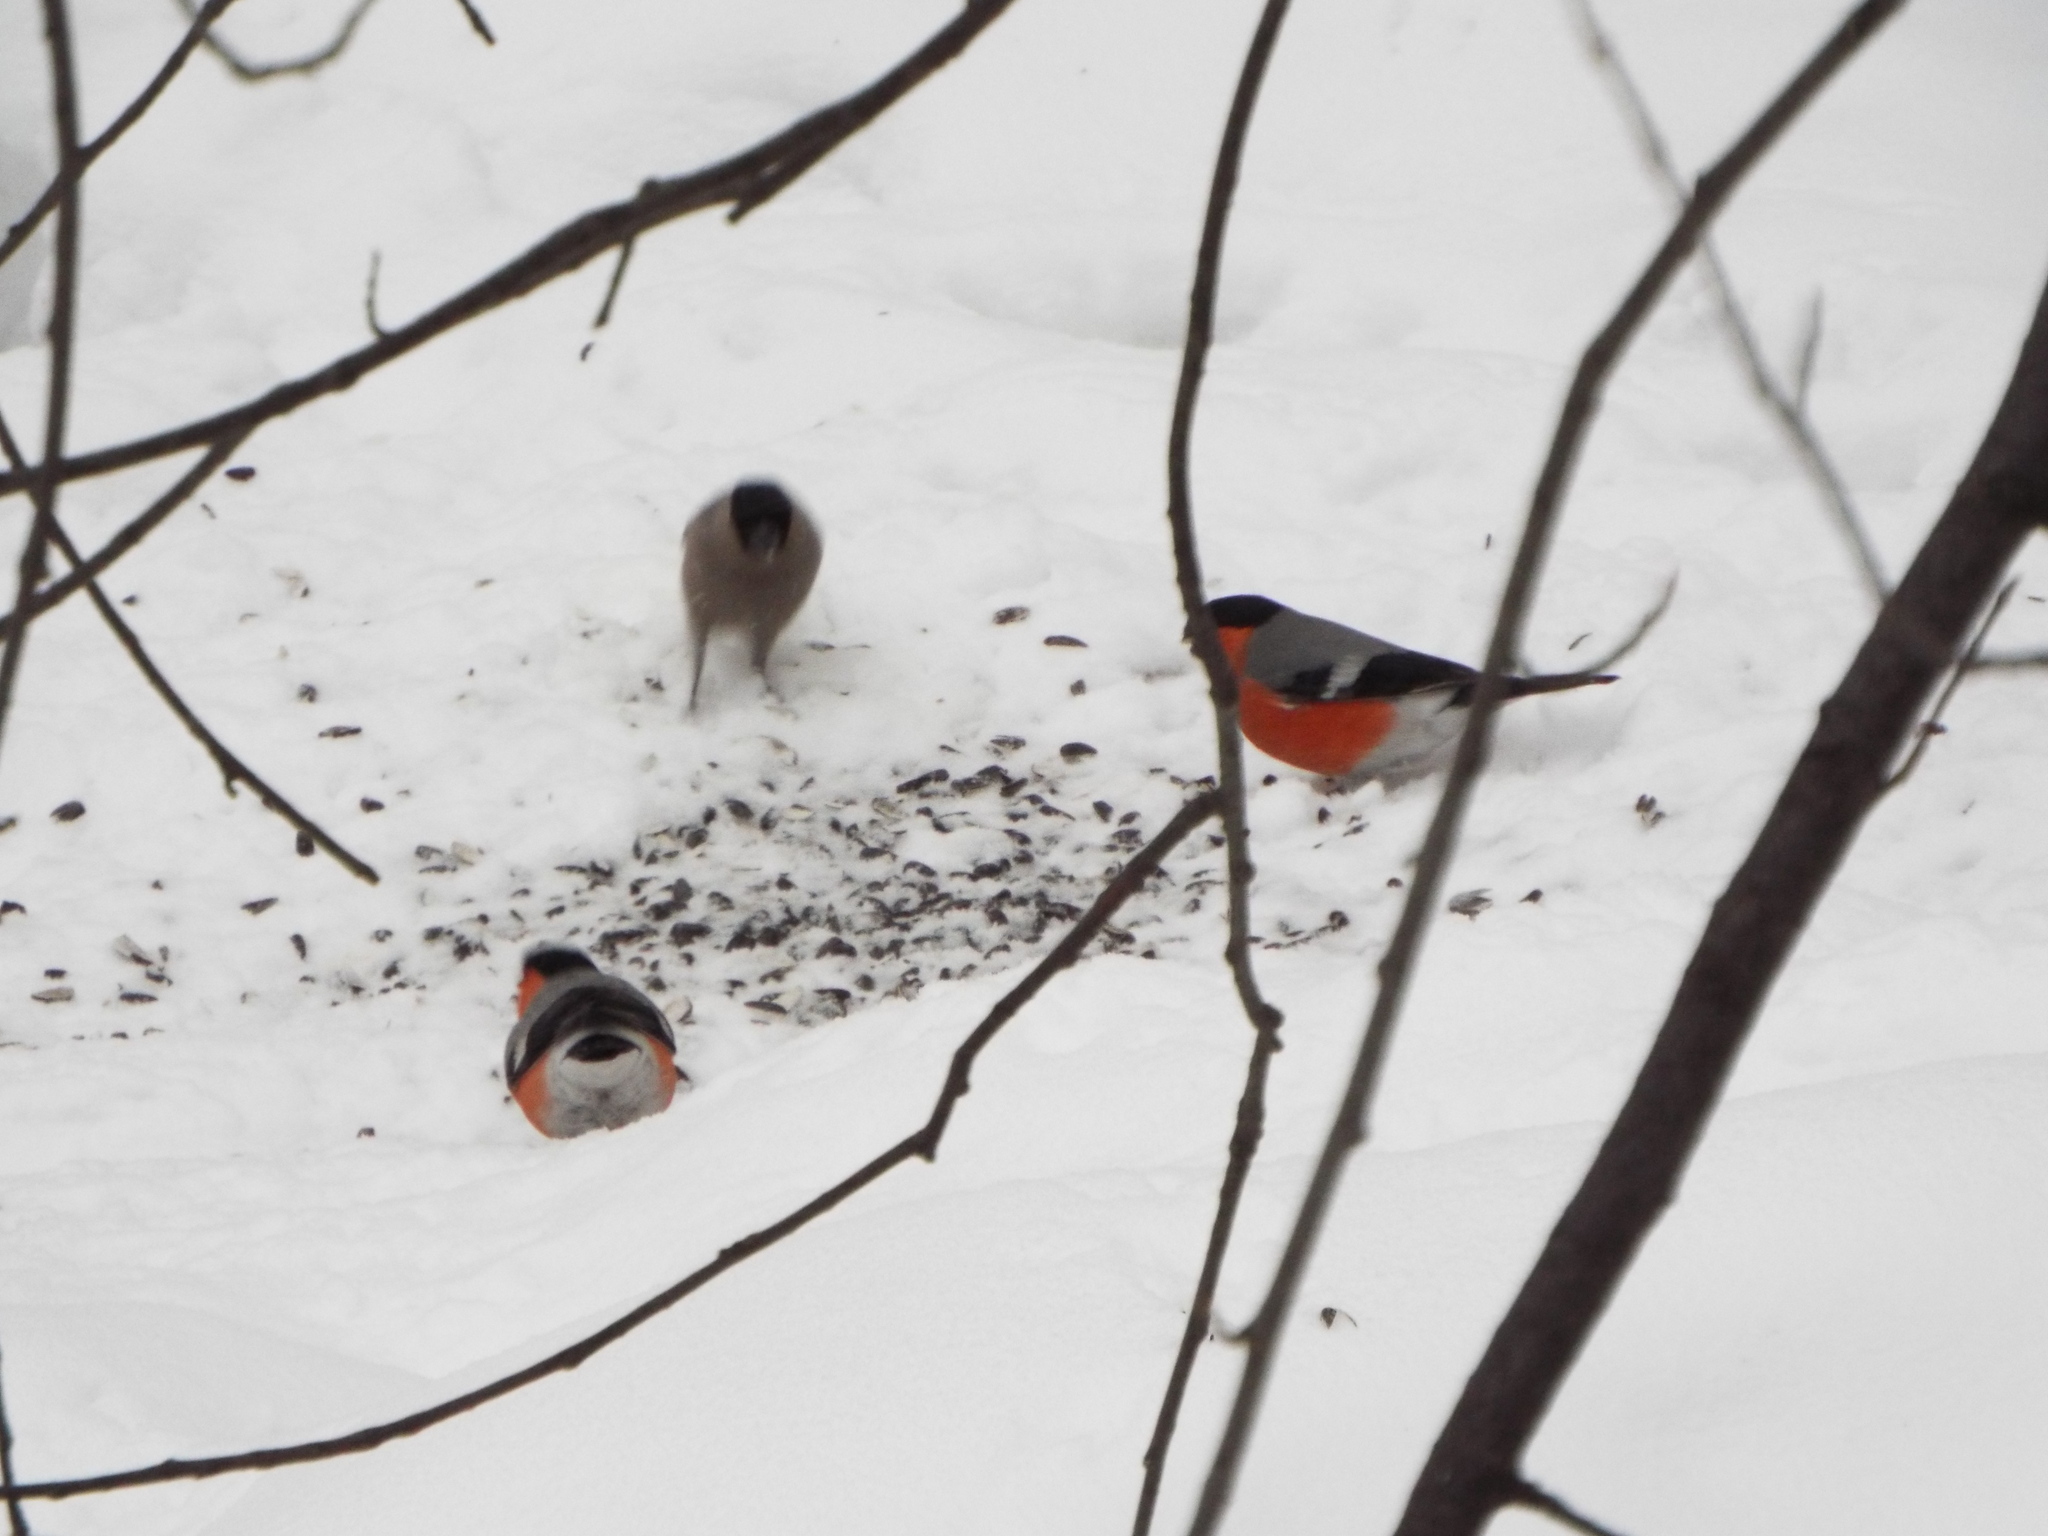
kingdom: Animalia
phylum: Chordata
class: Aves
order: Passeriformes
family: Fringillidae
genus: Pyrrhula
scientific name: Pyrrhula pyrrhula
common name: Eurasian bullfinch
